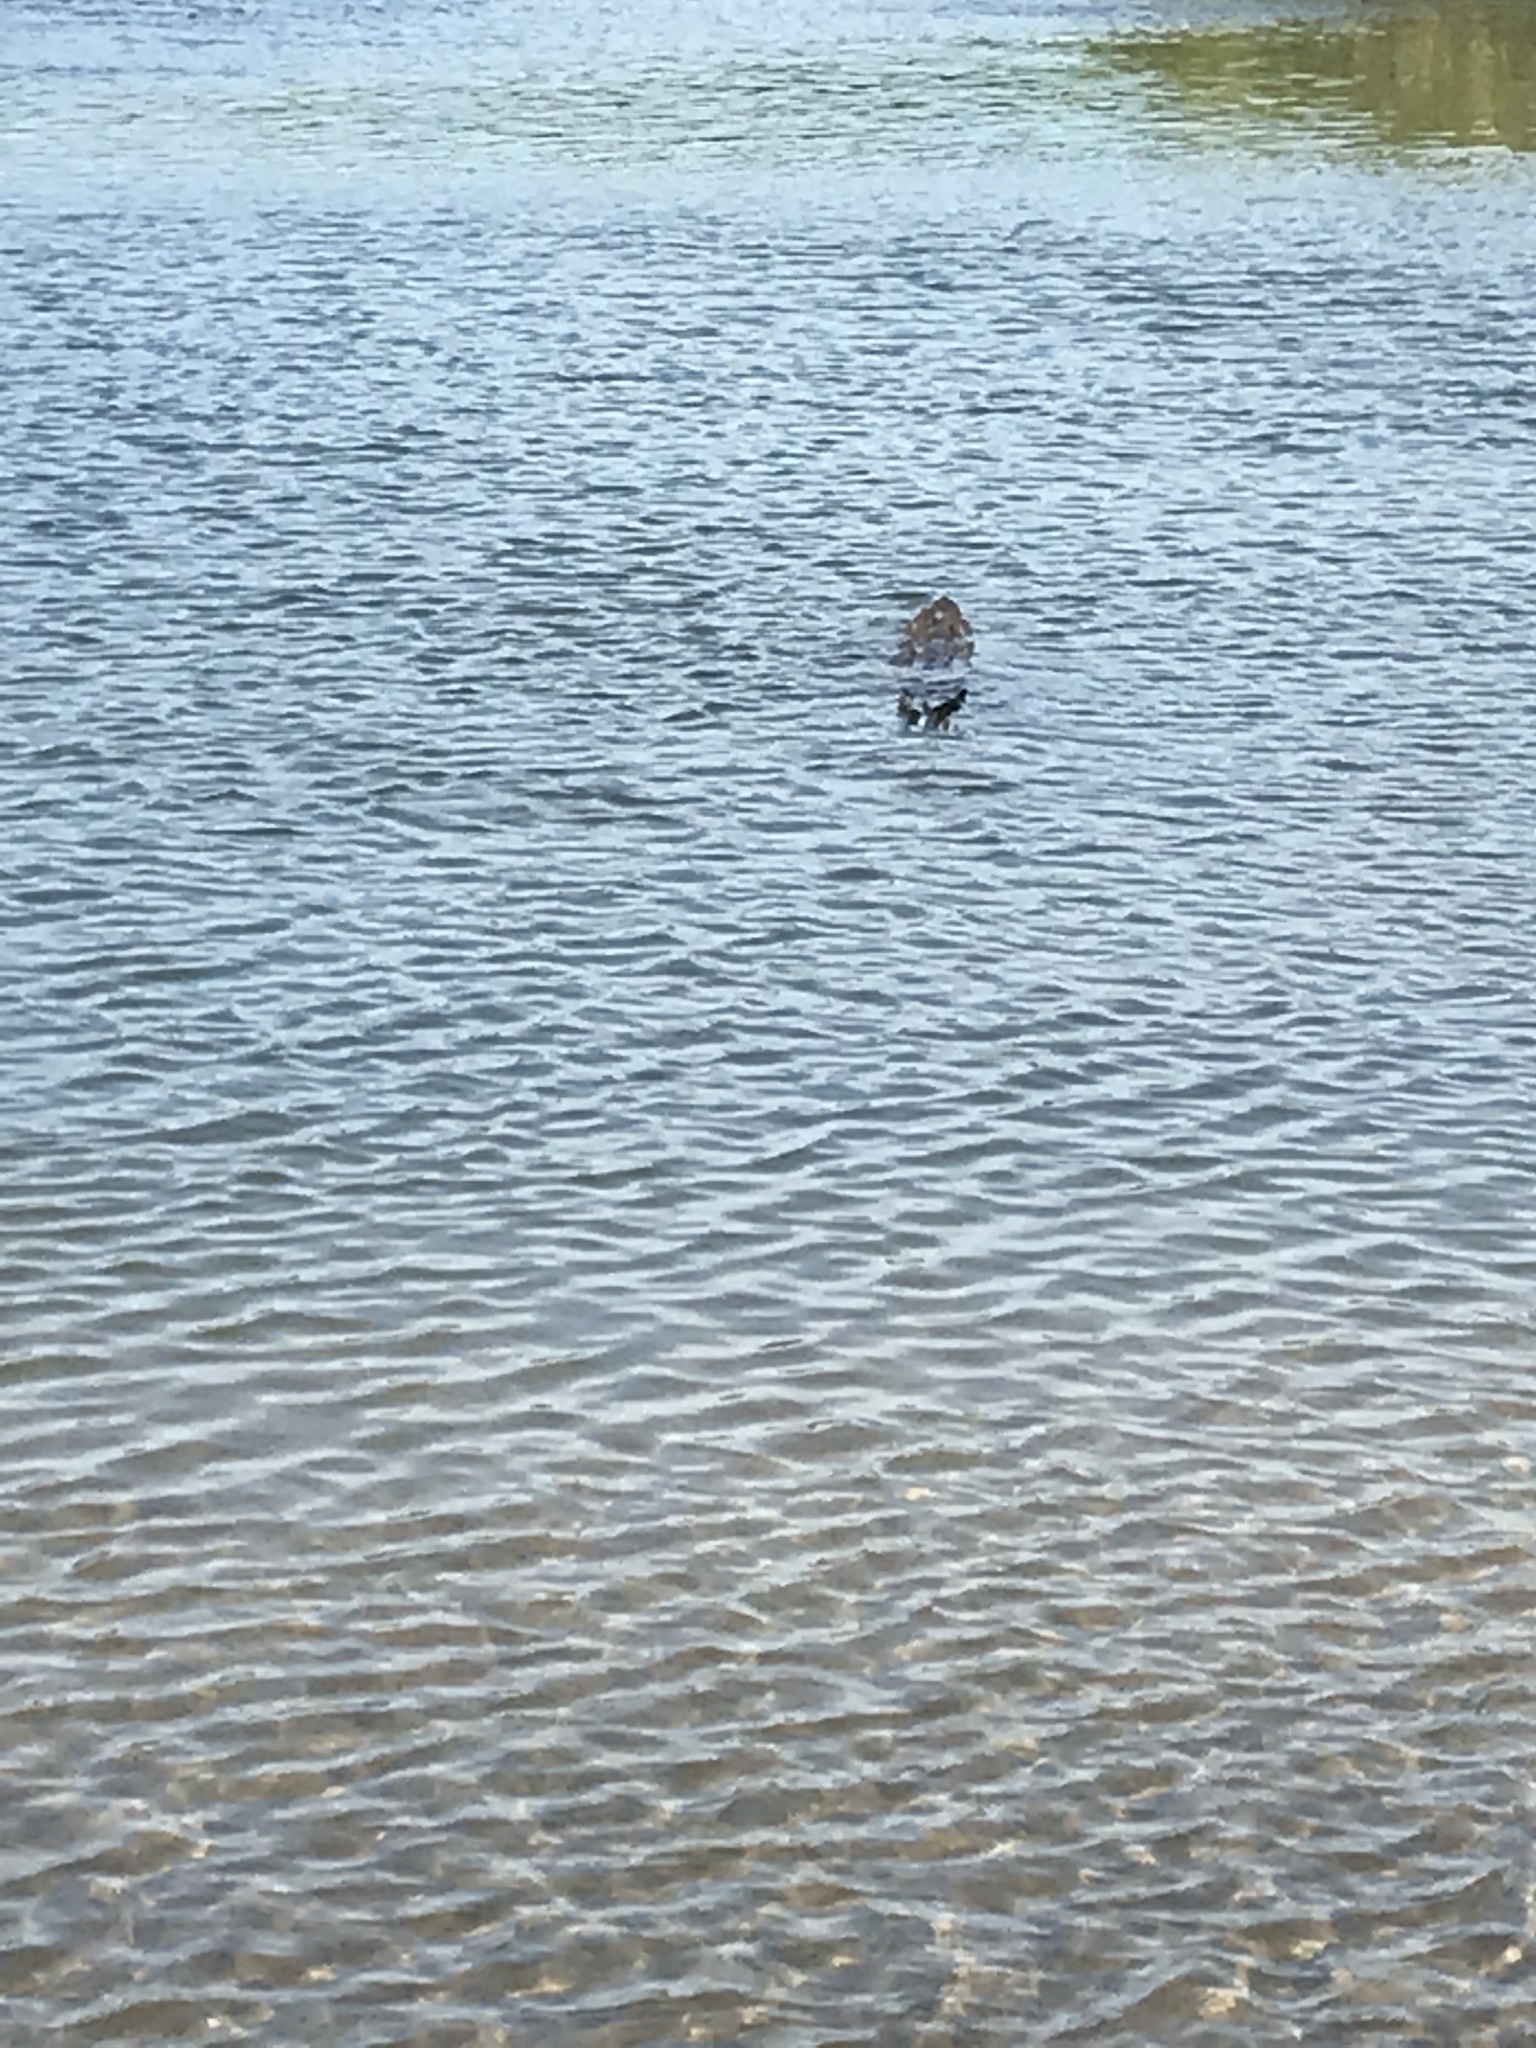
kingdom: Animalia
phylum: Chordata
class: Crocodylia
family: Crocodylidae
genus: Crocodylus
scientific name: Crocodylus acutus
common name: American crocodile
